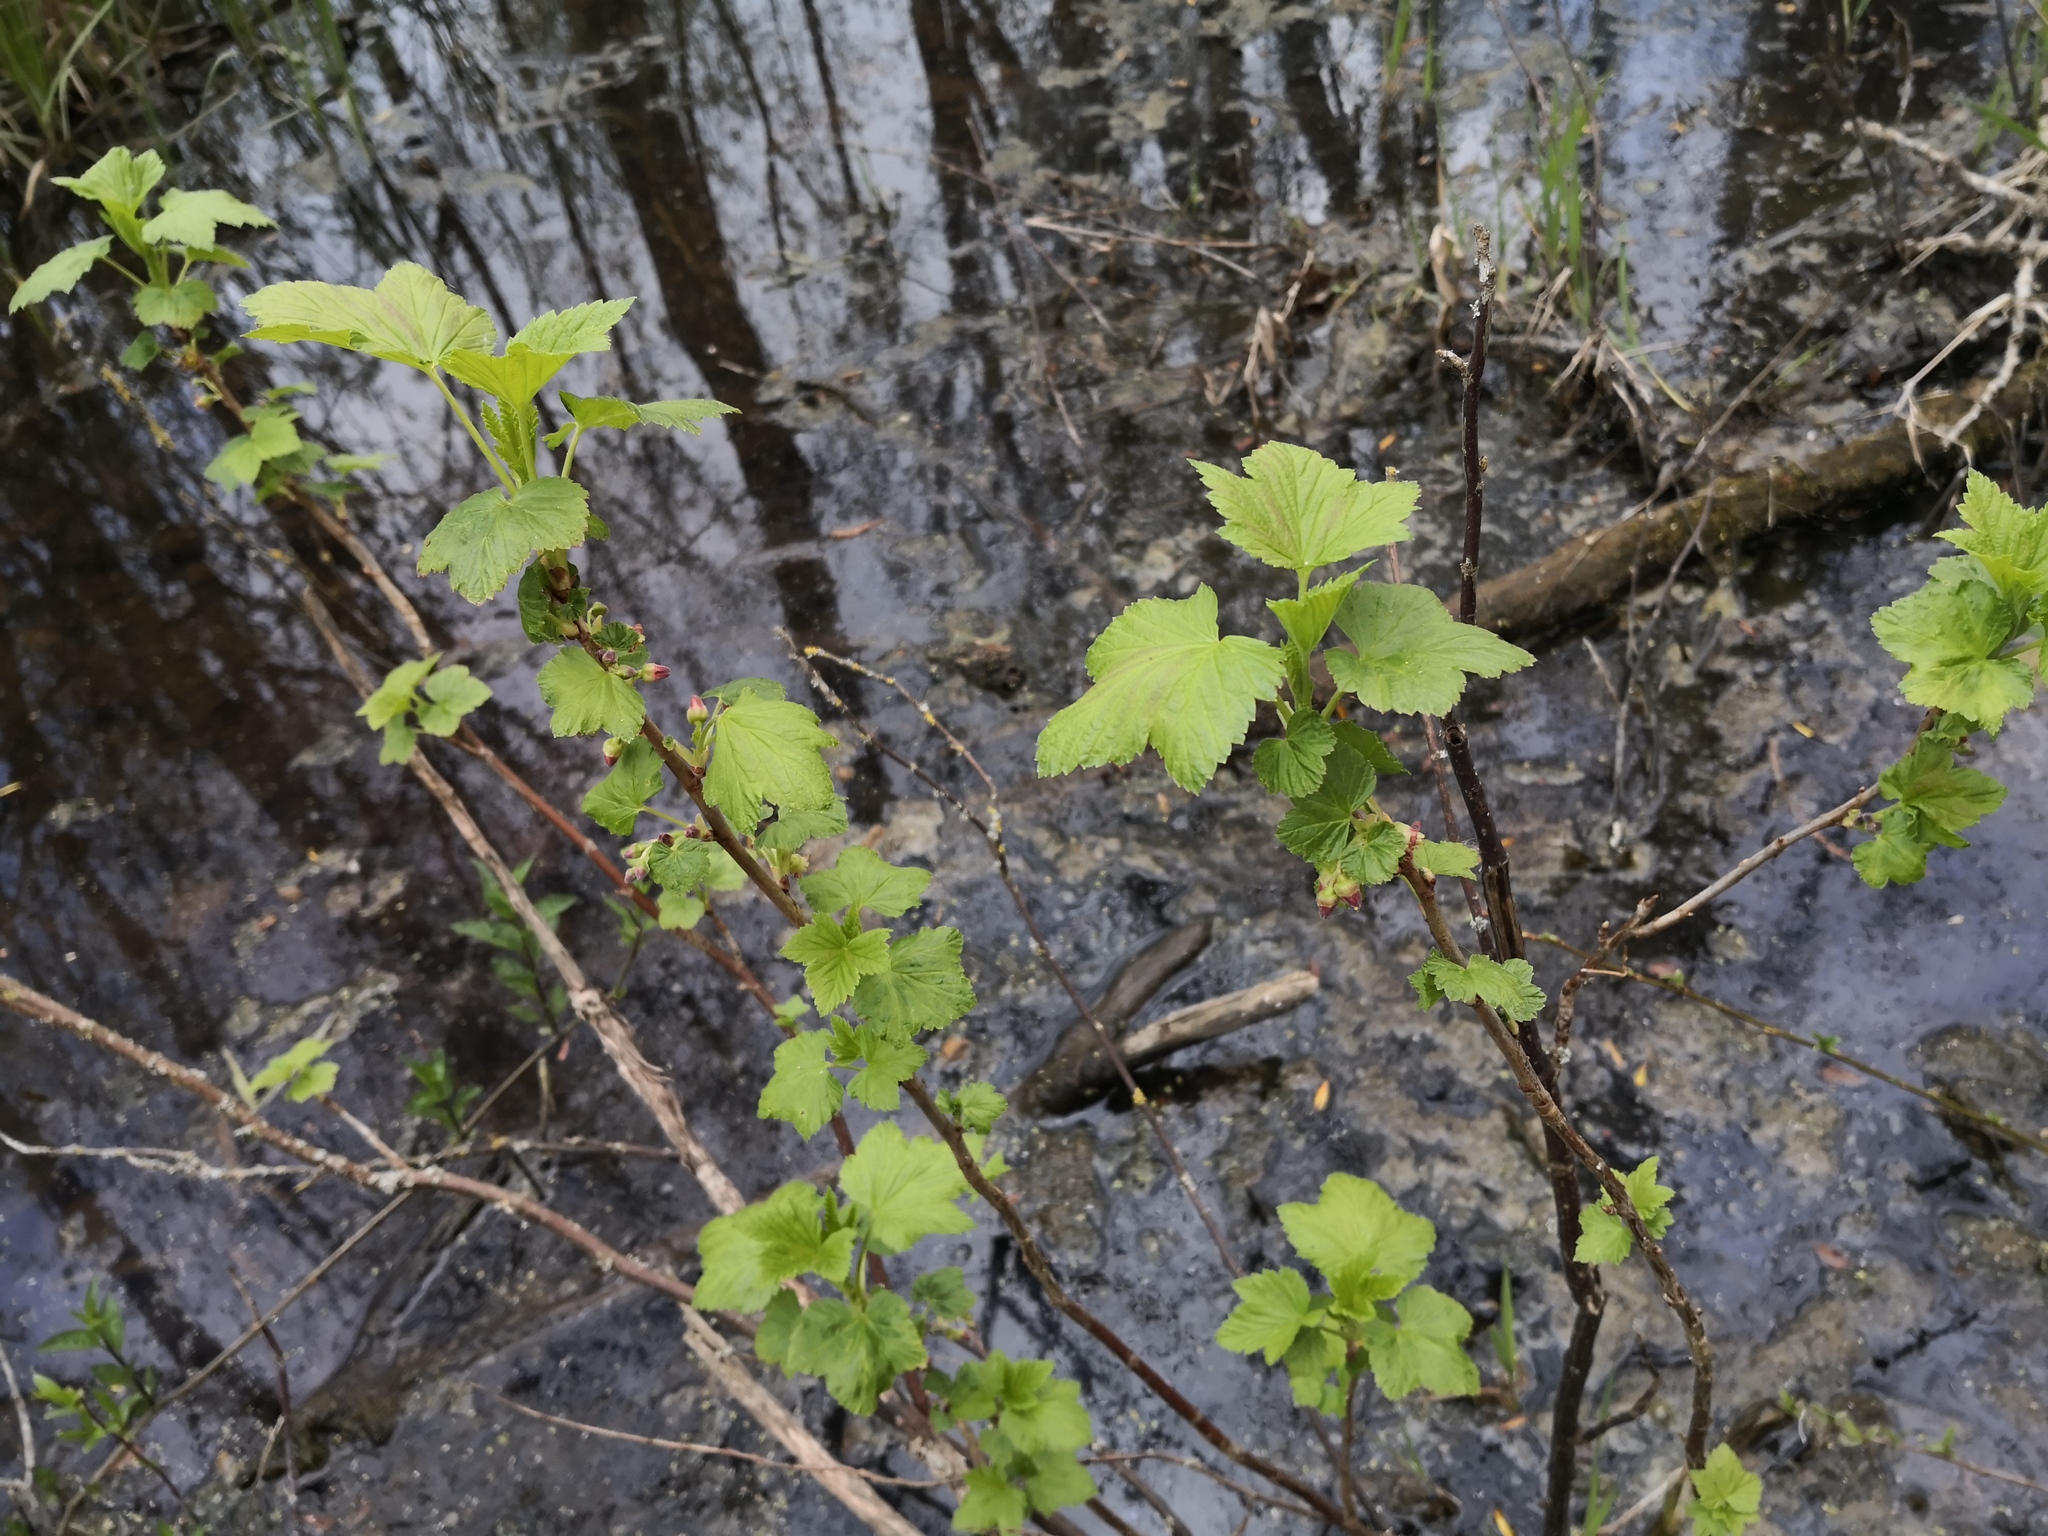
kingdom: Plantae
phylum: Tracheophyta
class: Magnoliopsida
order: Saxifragales
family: Grossulariaceae
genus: Ribes
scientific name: Ribes rubrum
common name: Red currant
